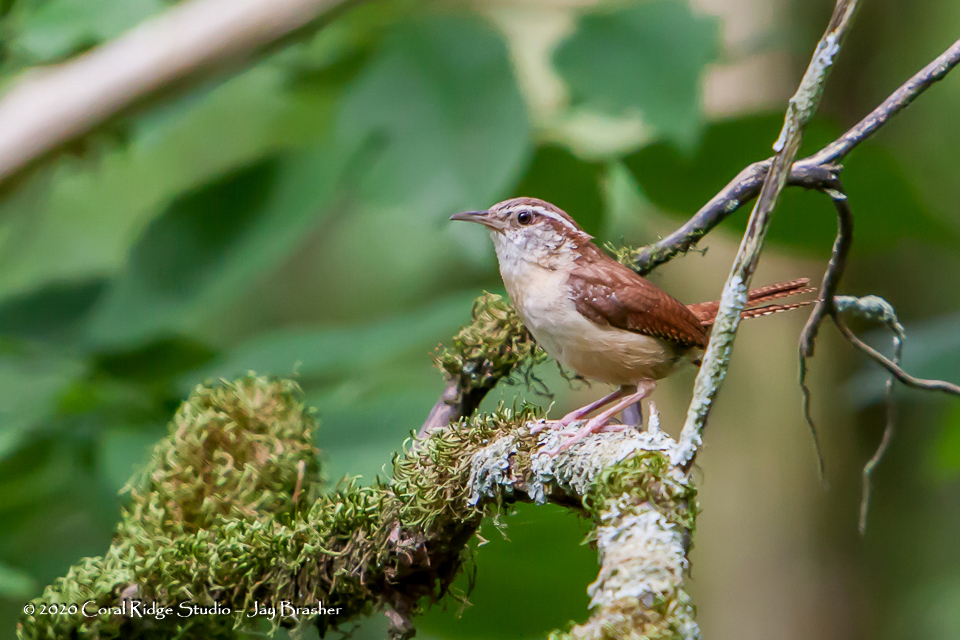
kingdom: Animalia
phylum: Chordata
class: Aves
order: Passeriformes
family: Troglodytidae
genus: Thryothorus
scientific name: Thryothorus ludovicianus
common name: Carolina wren
